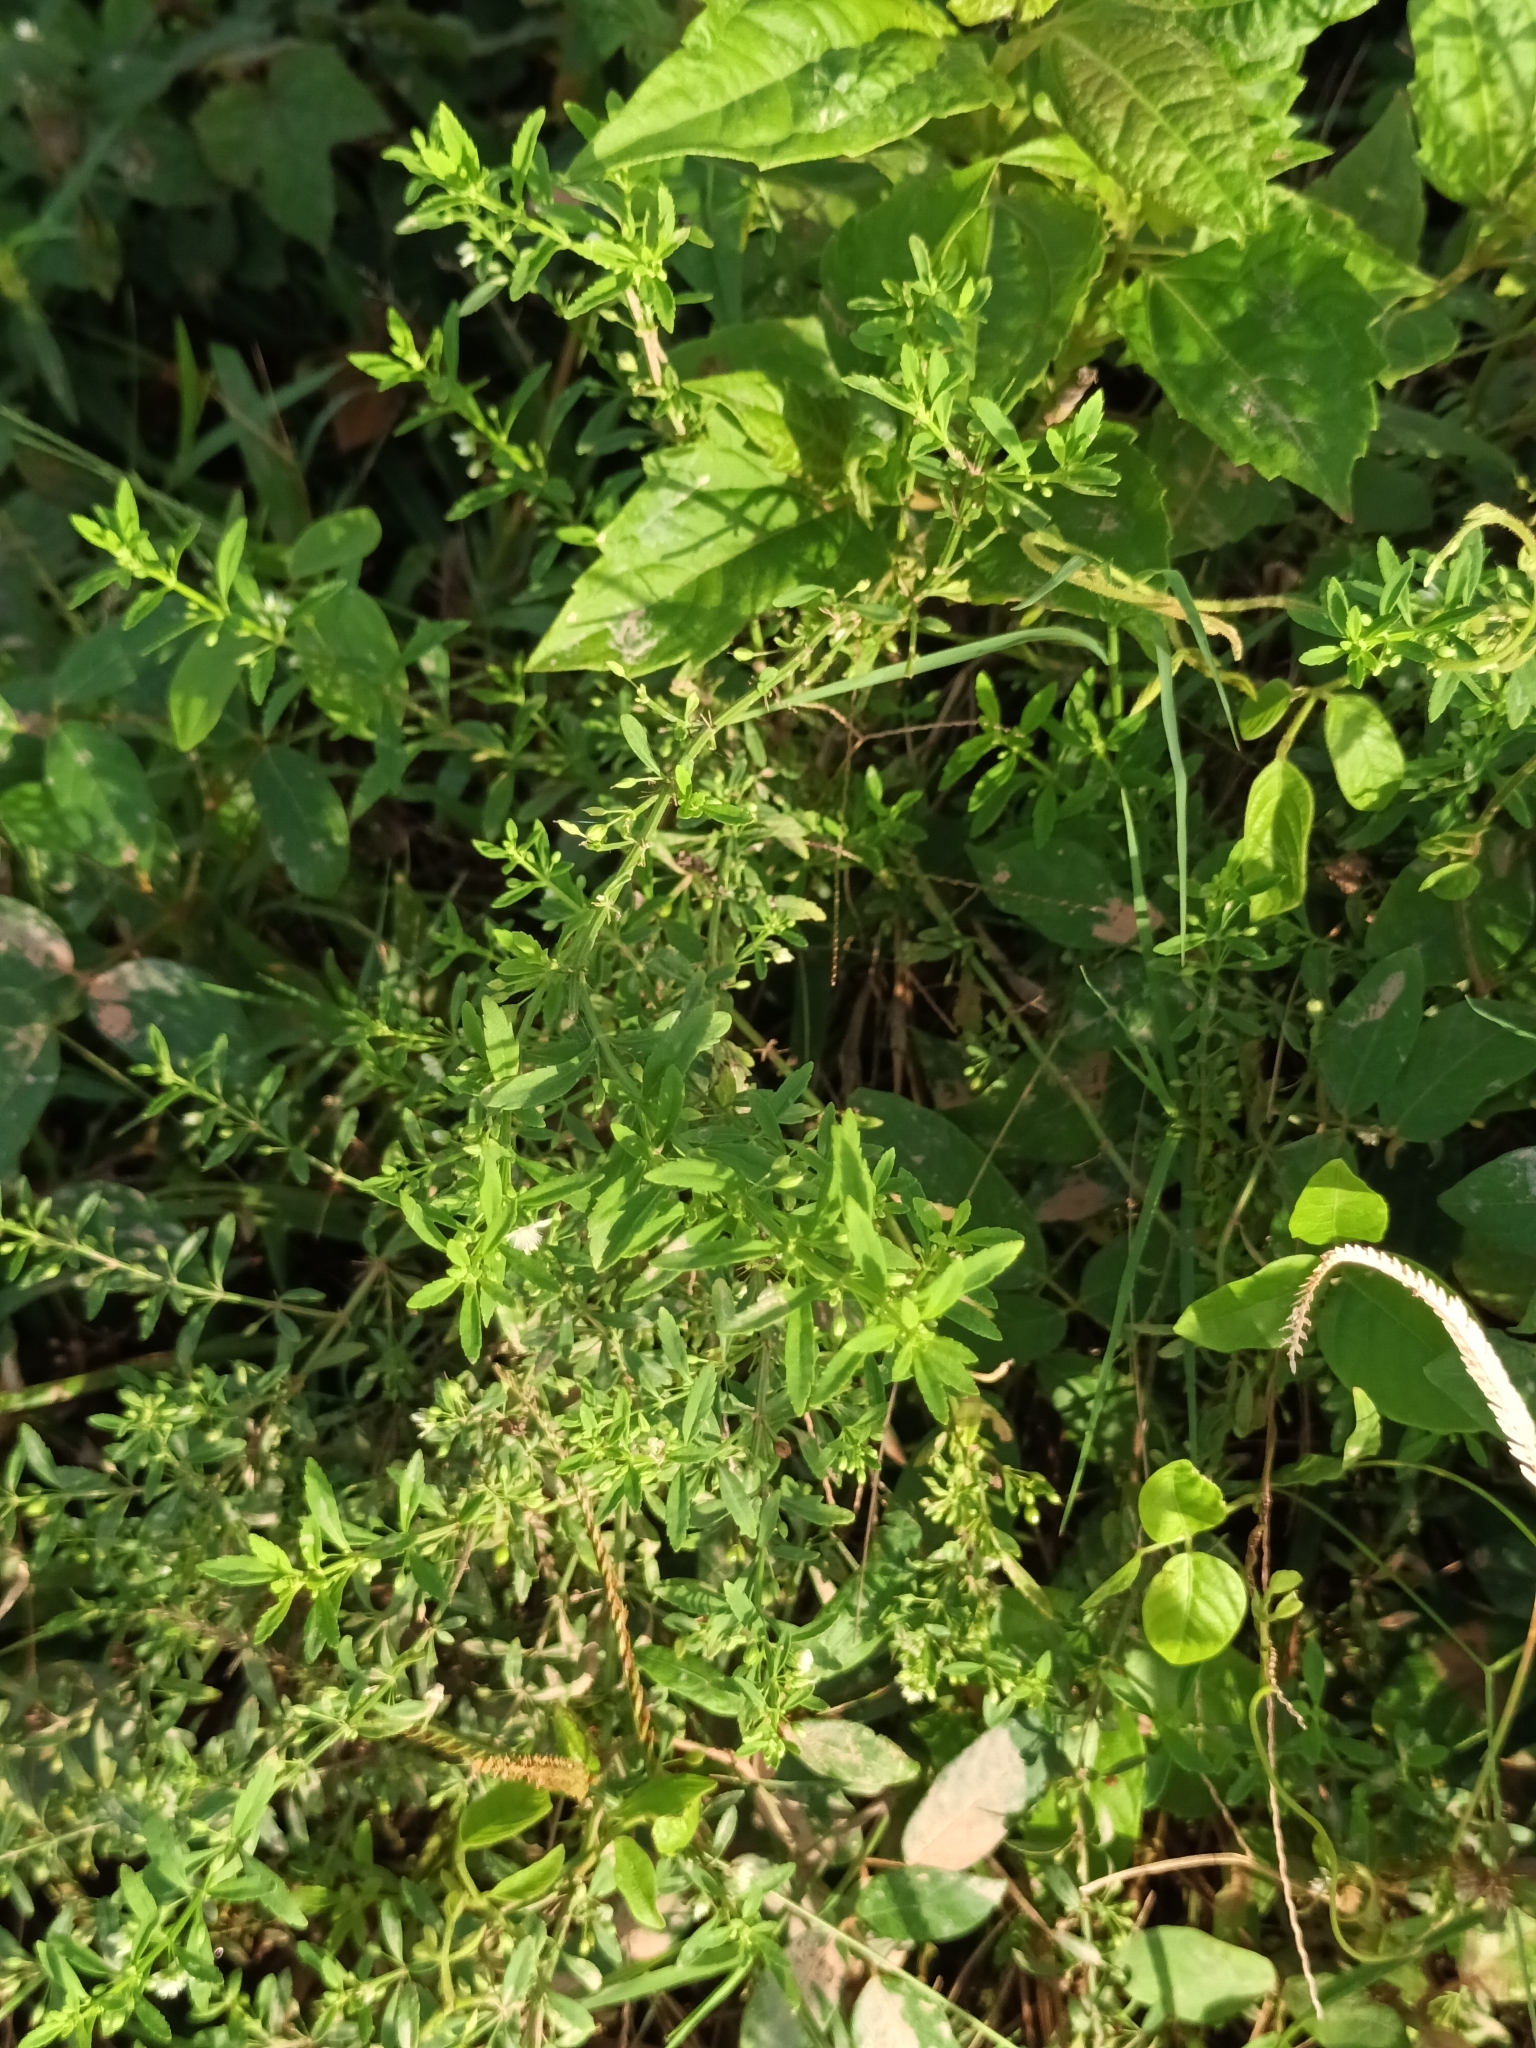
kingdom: Plantae
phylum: Tracheophyta
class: Magnoliopsida
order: Lamiales
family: Plantaginaceae
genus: Scoparia
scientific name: Scoparia dulcis
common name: Scoparia-weed
